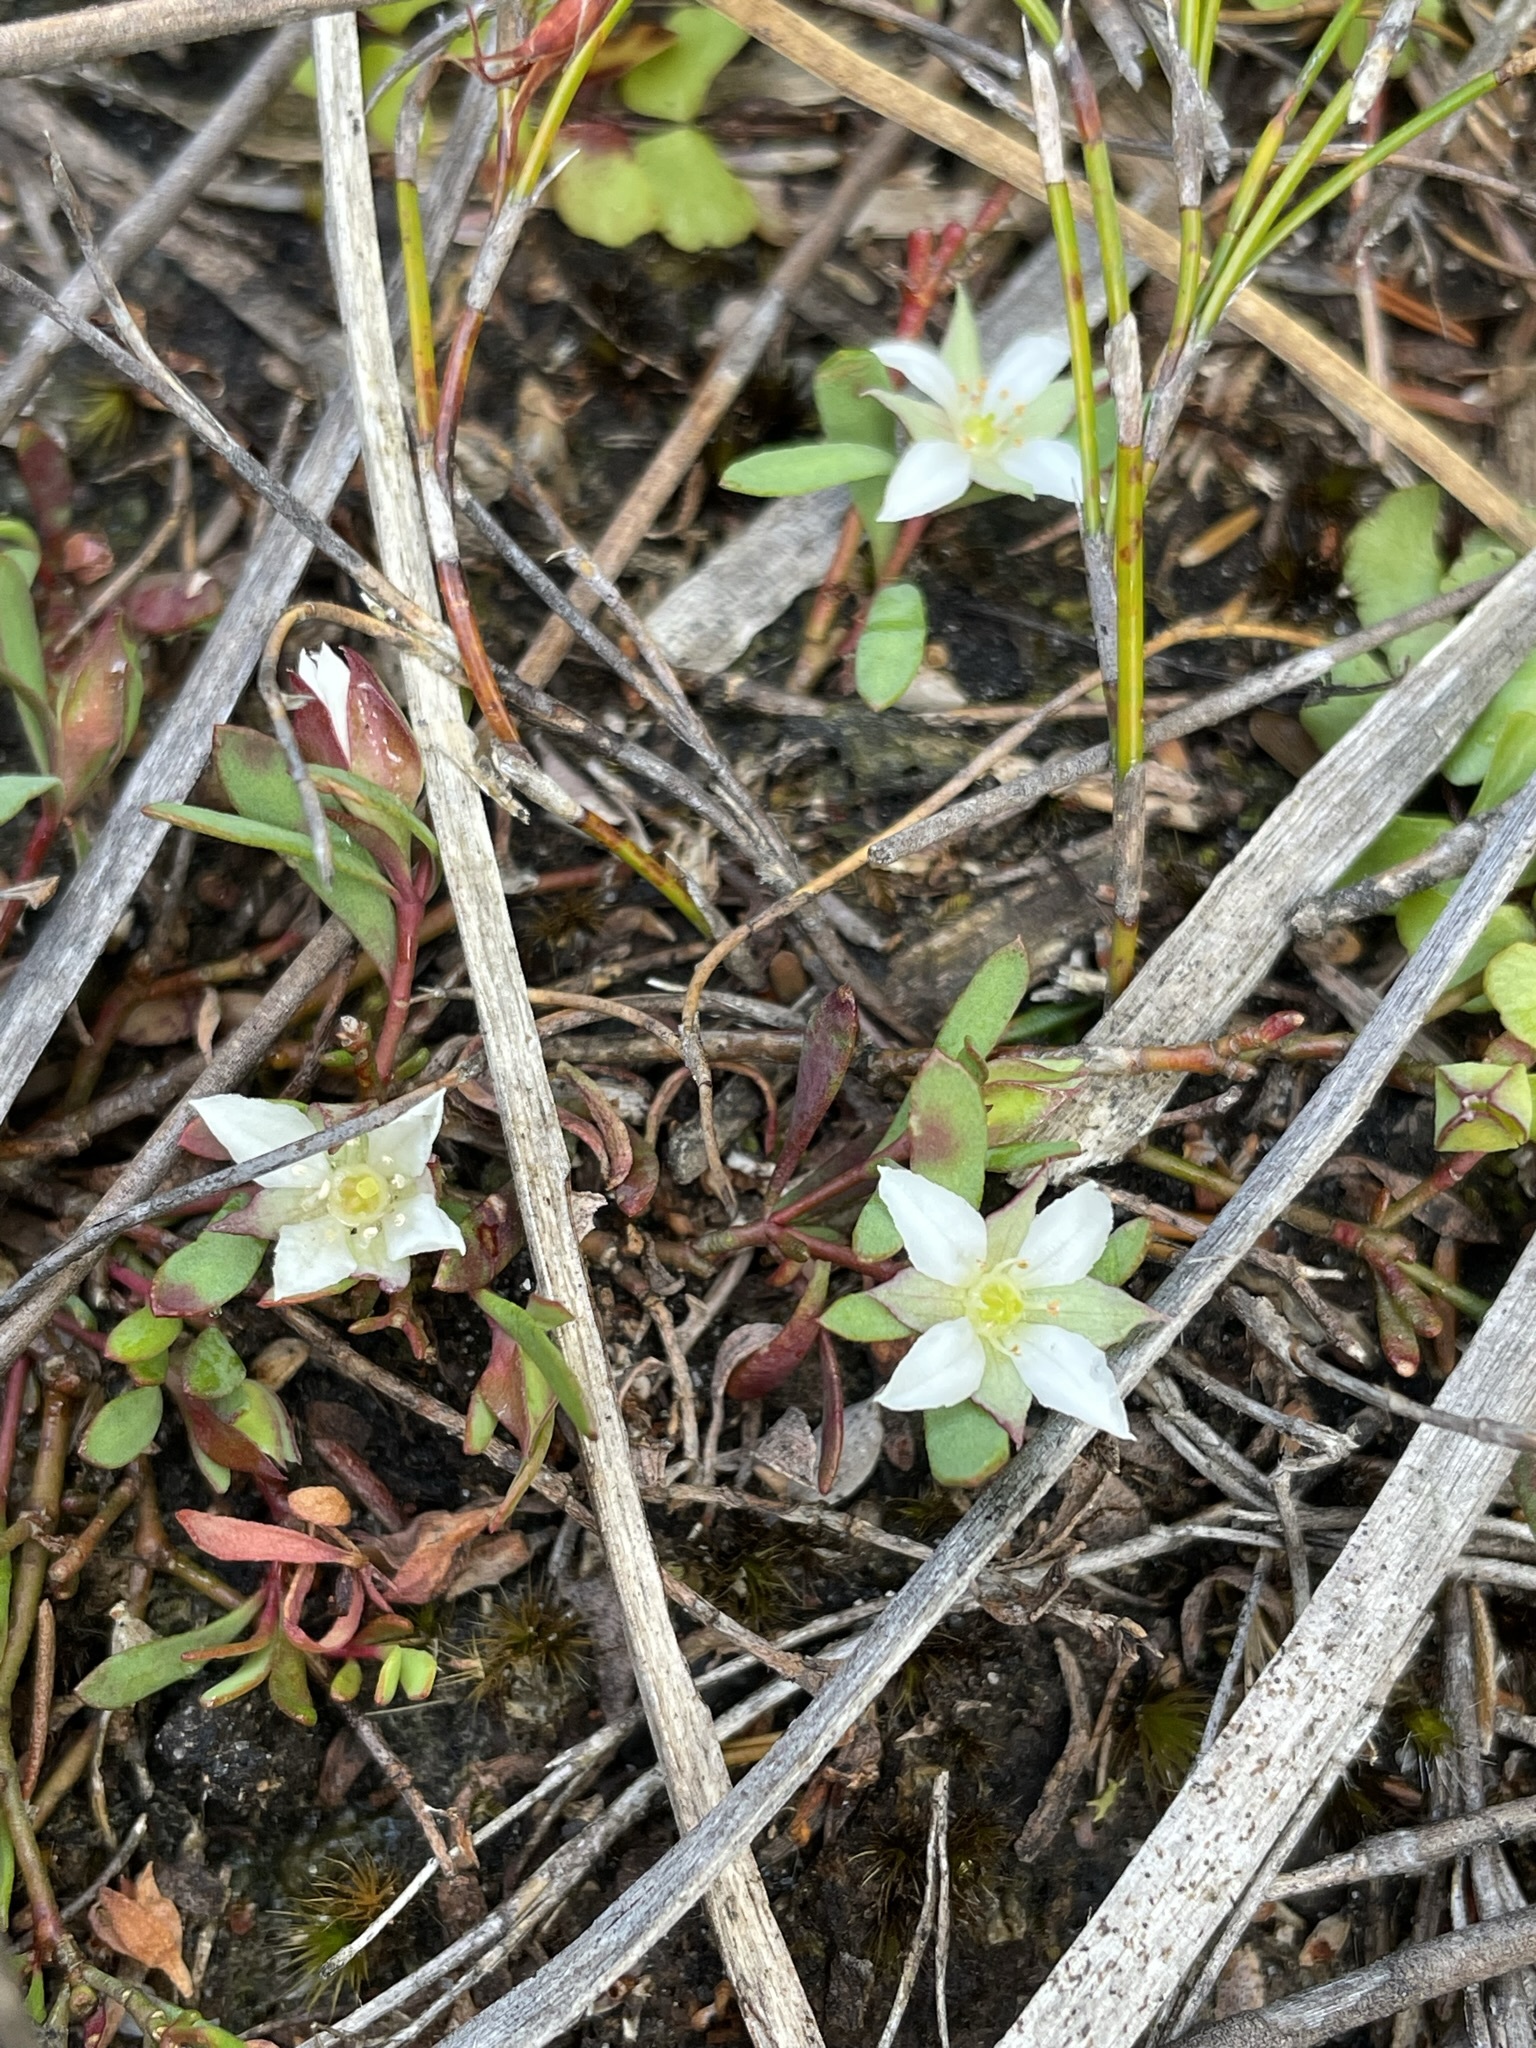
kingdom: Plantae
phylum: Tracheophyta
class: Magnoliopsida
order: Sapindales
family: Rutaceae
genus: Boronia
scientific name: Boronia parviflora
